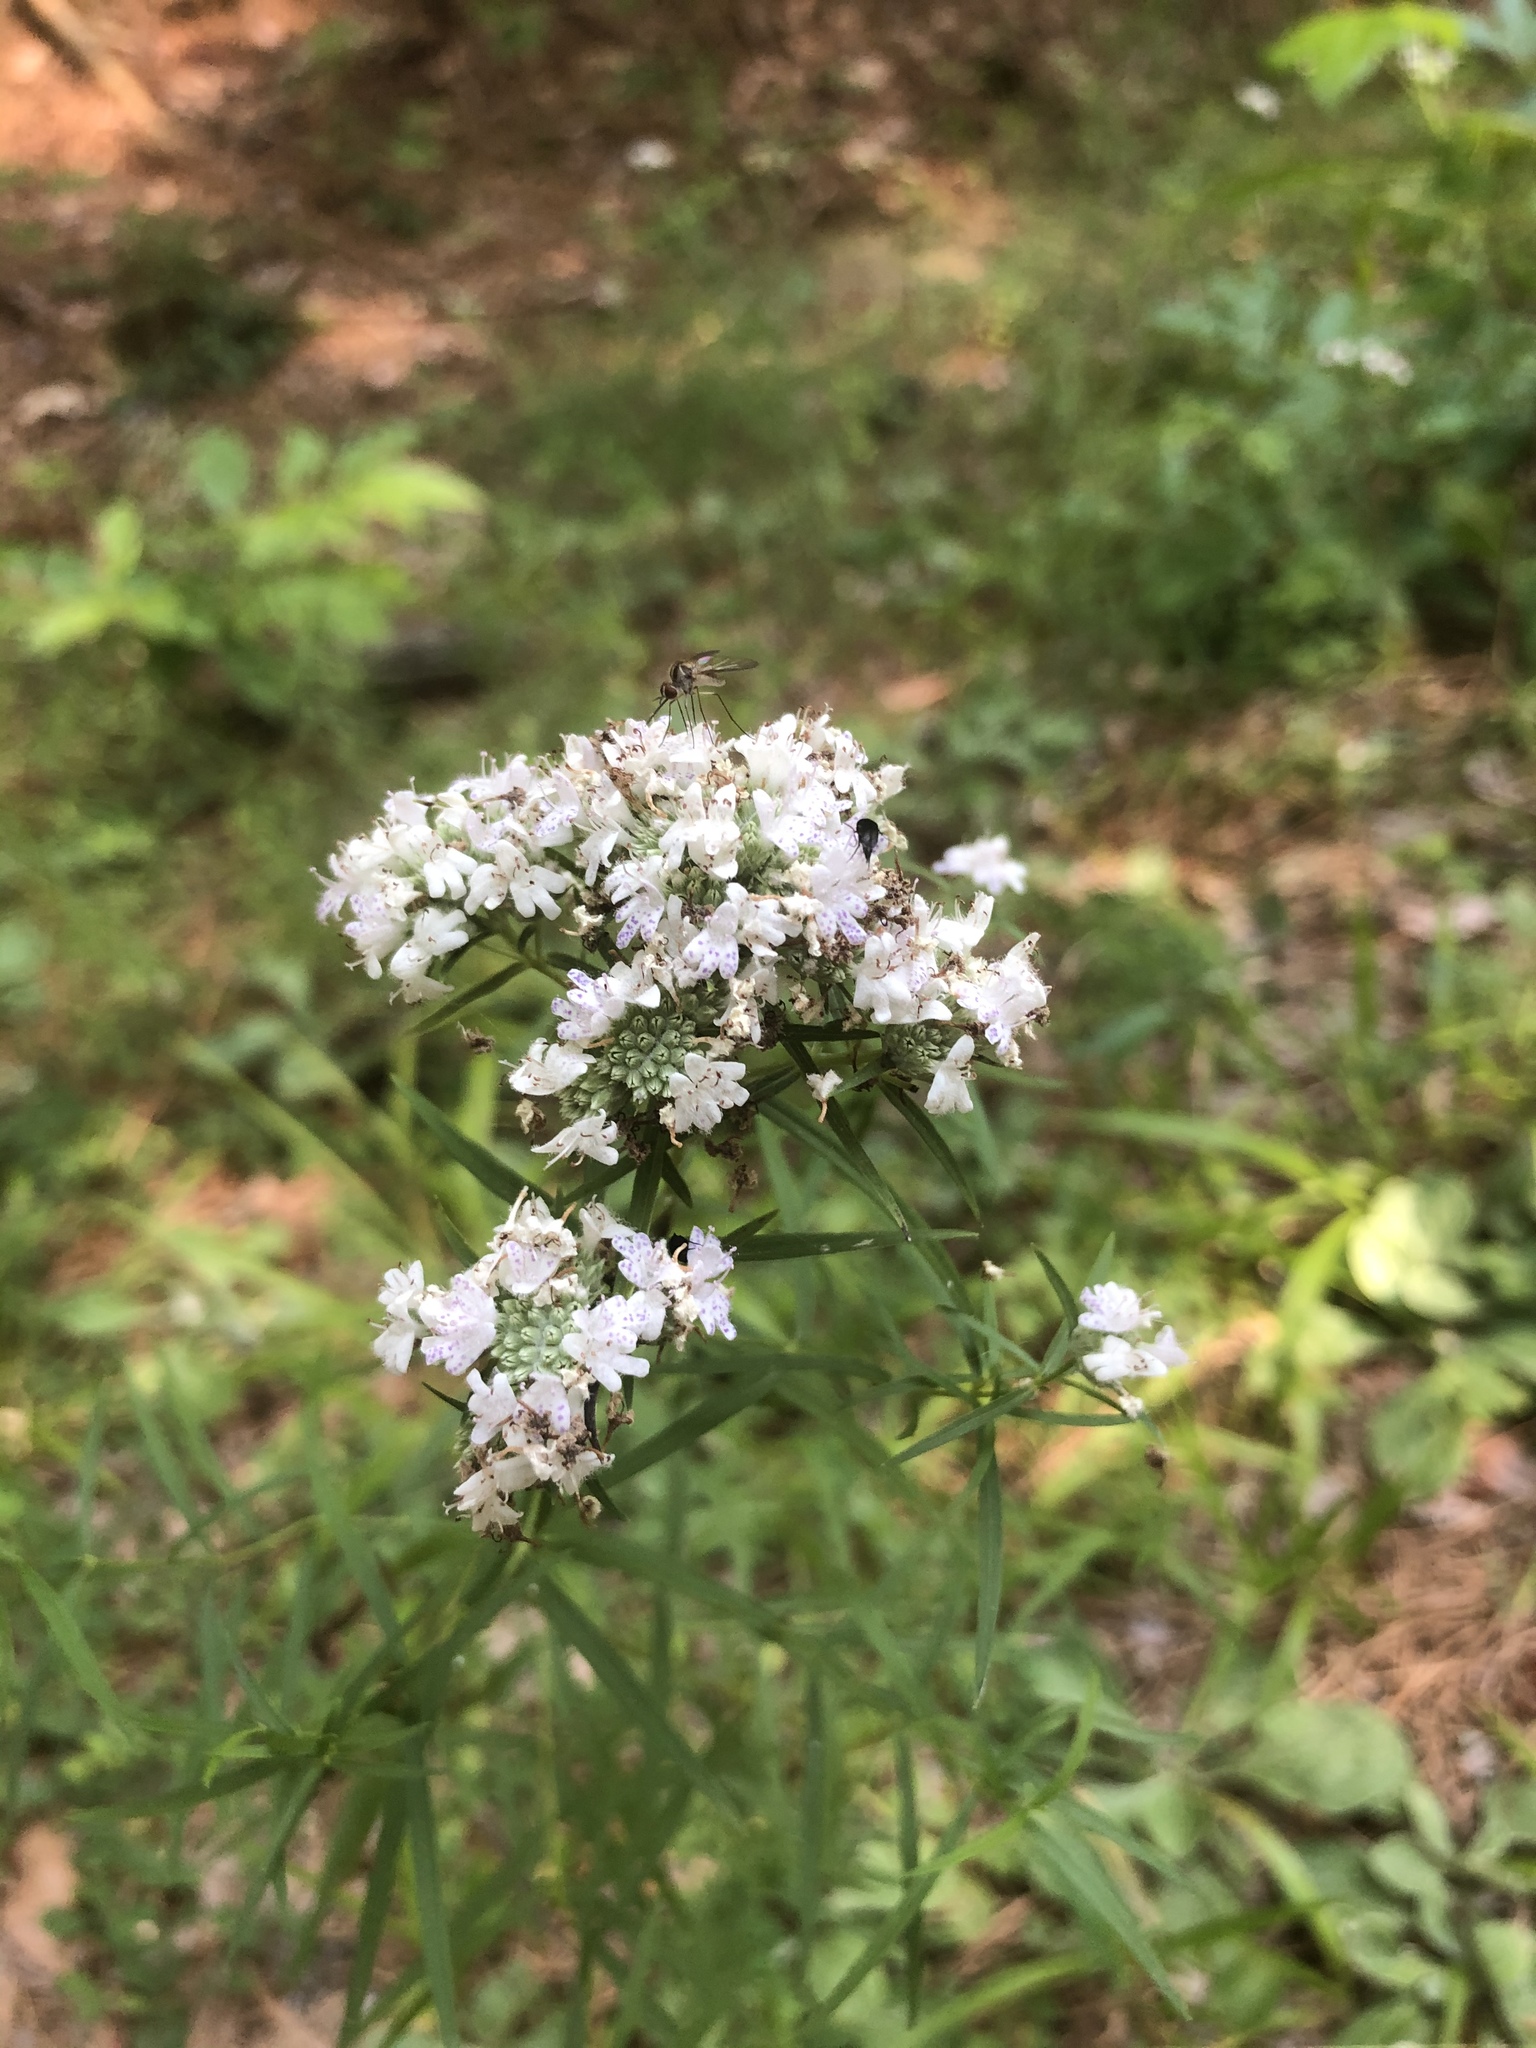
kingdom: Plantae
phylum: Tracheophyta
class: Magnoliopsida
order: Lamiales
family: Lamiaceae
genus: Pycnanthemum
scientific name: Pycnanthemum tenuifolium
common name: Narrow-leaf mountain-mint
